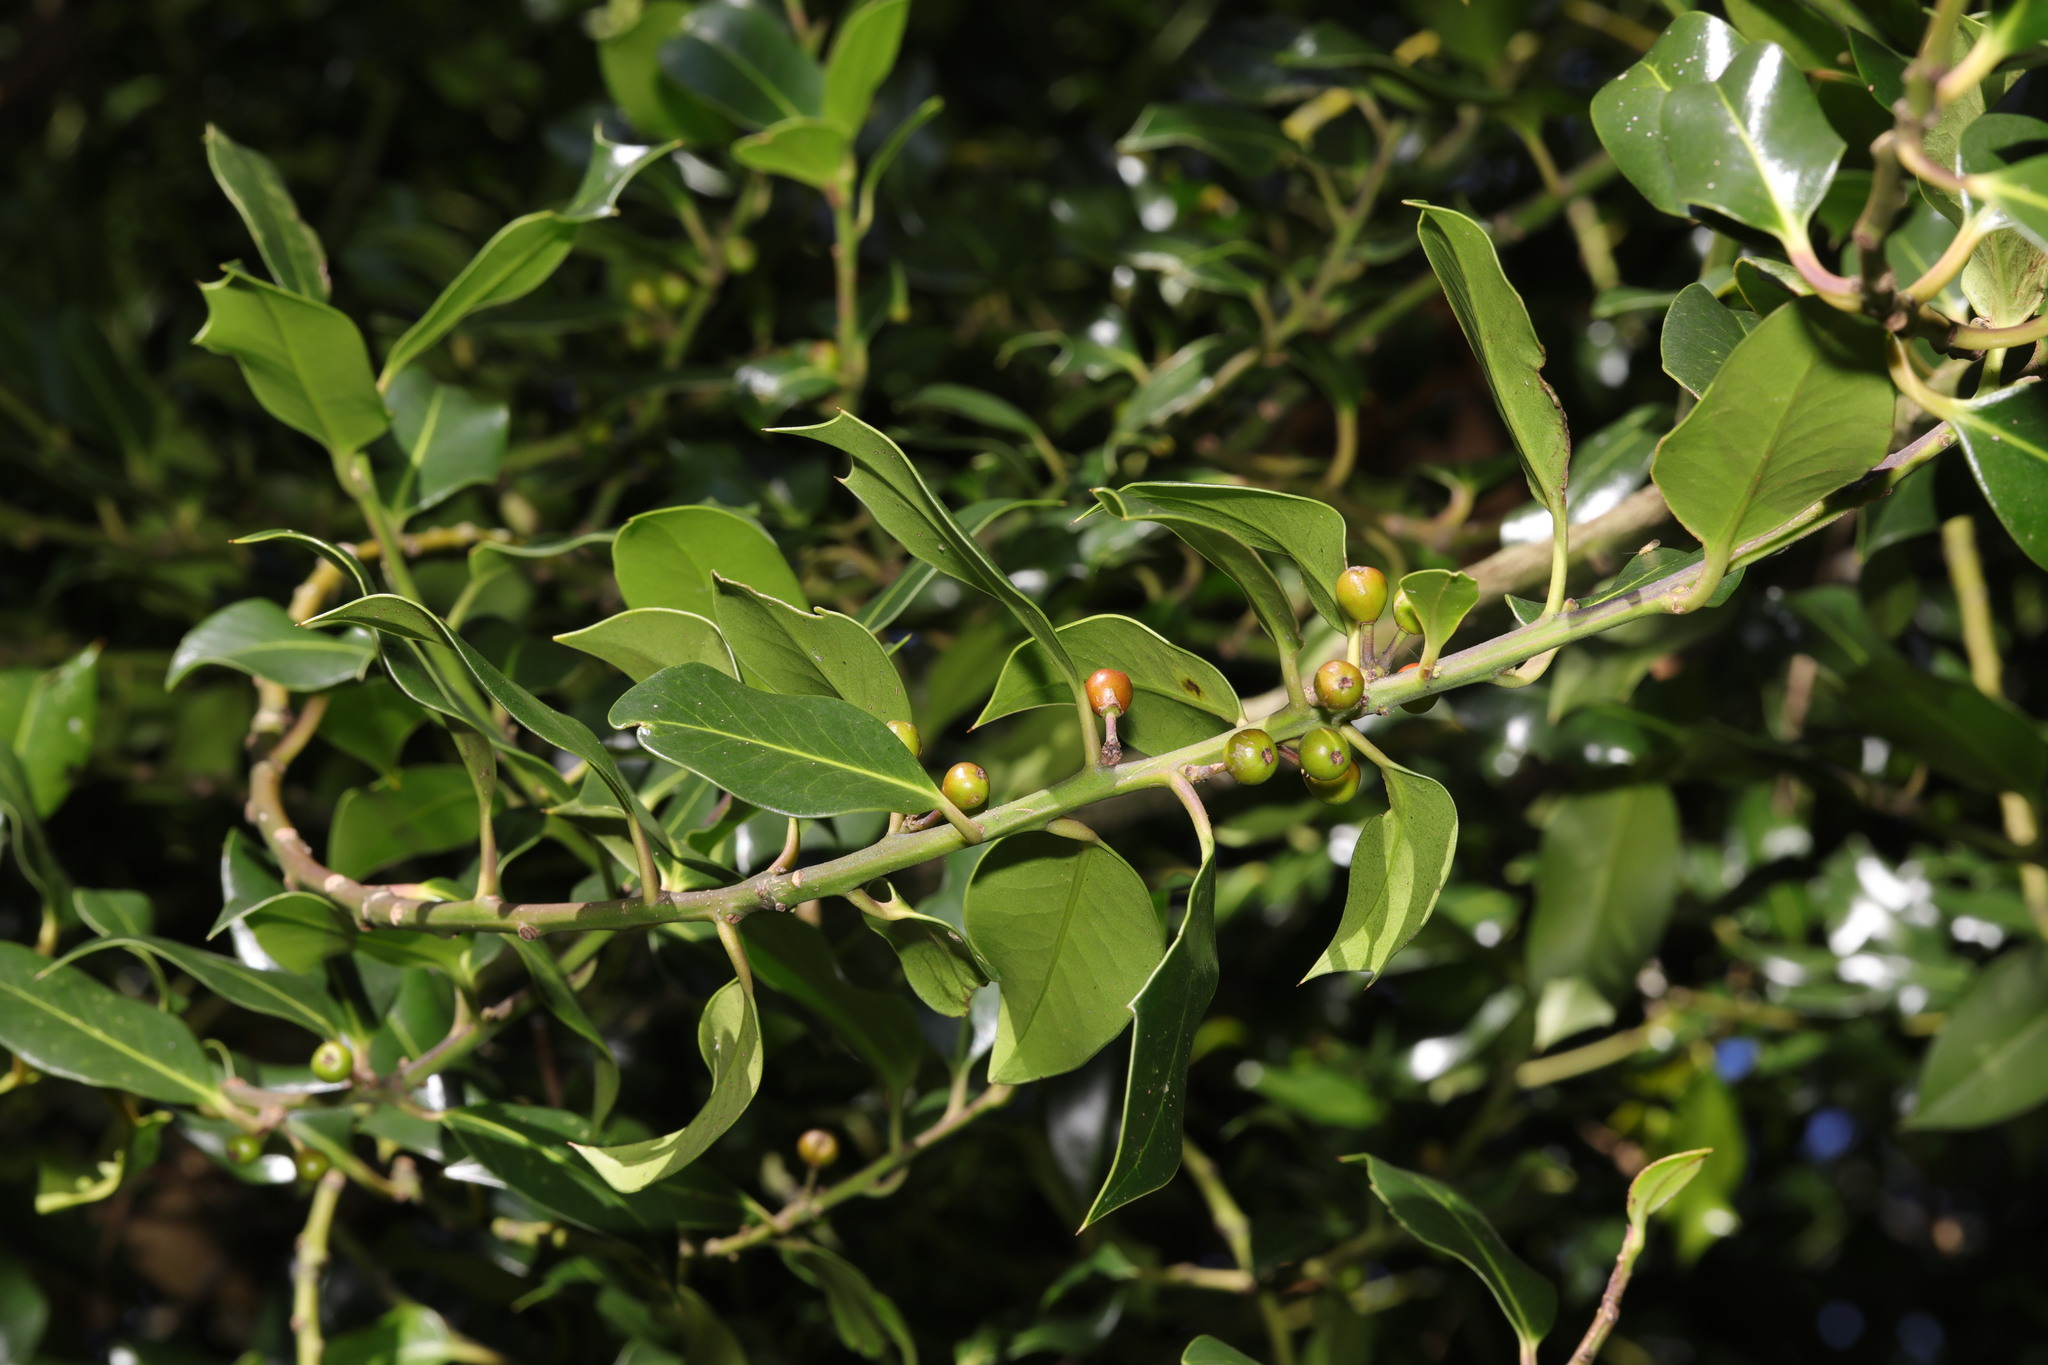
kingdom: Plantae
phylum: Tracheophyta
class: Magnoliopsida
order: Aquifoliales
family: Aquifoliaceae
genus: Ilex
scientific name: Ilex aquifolium
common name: English holly
